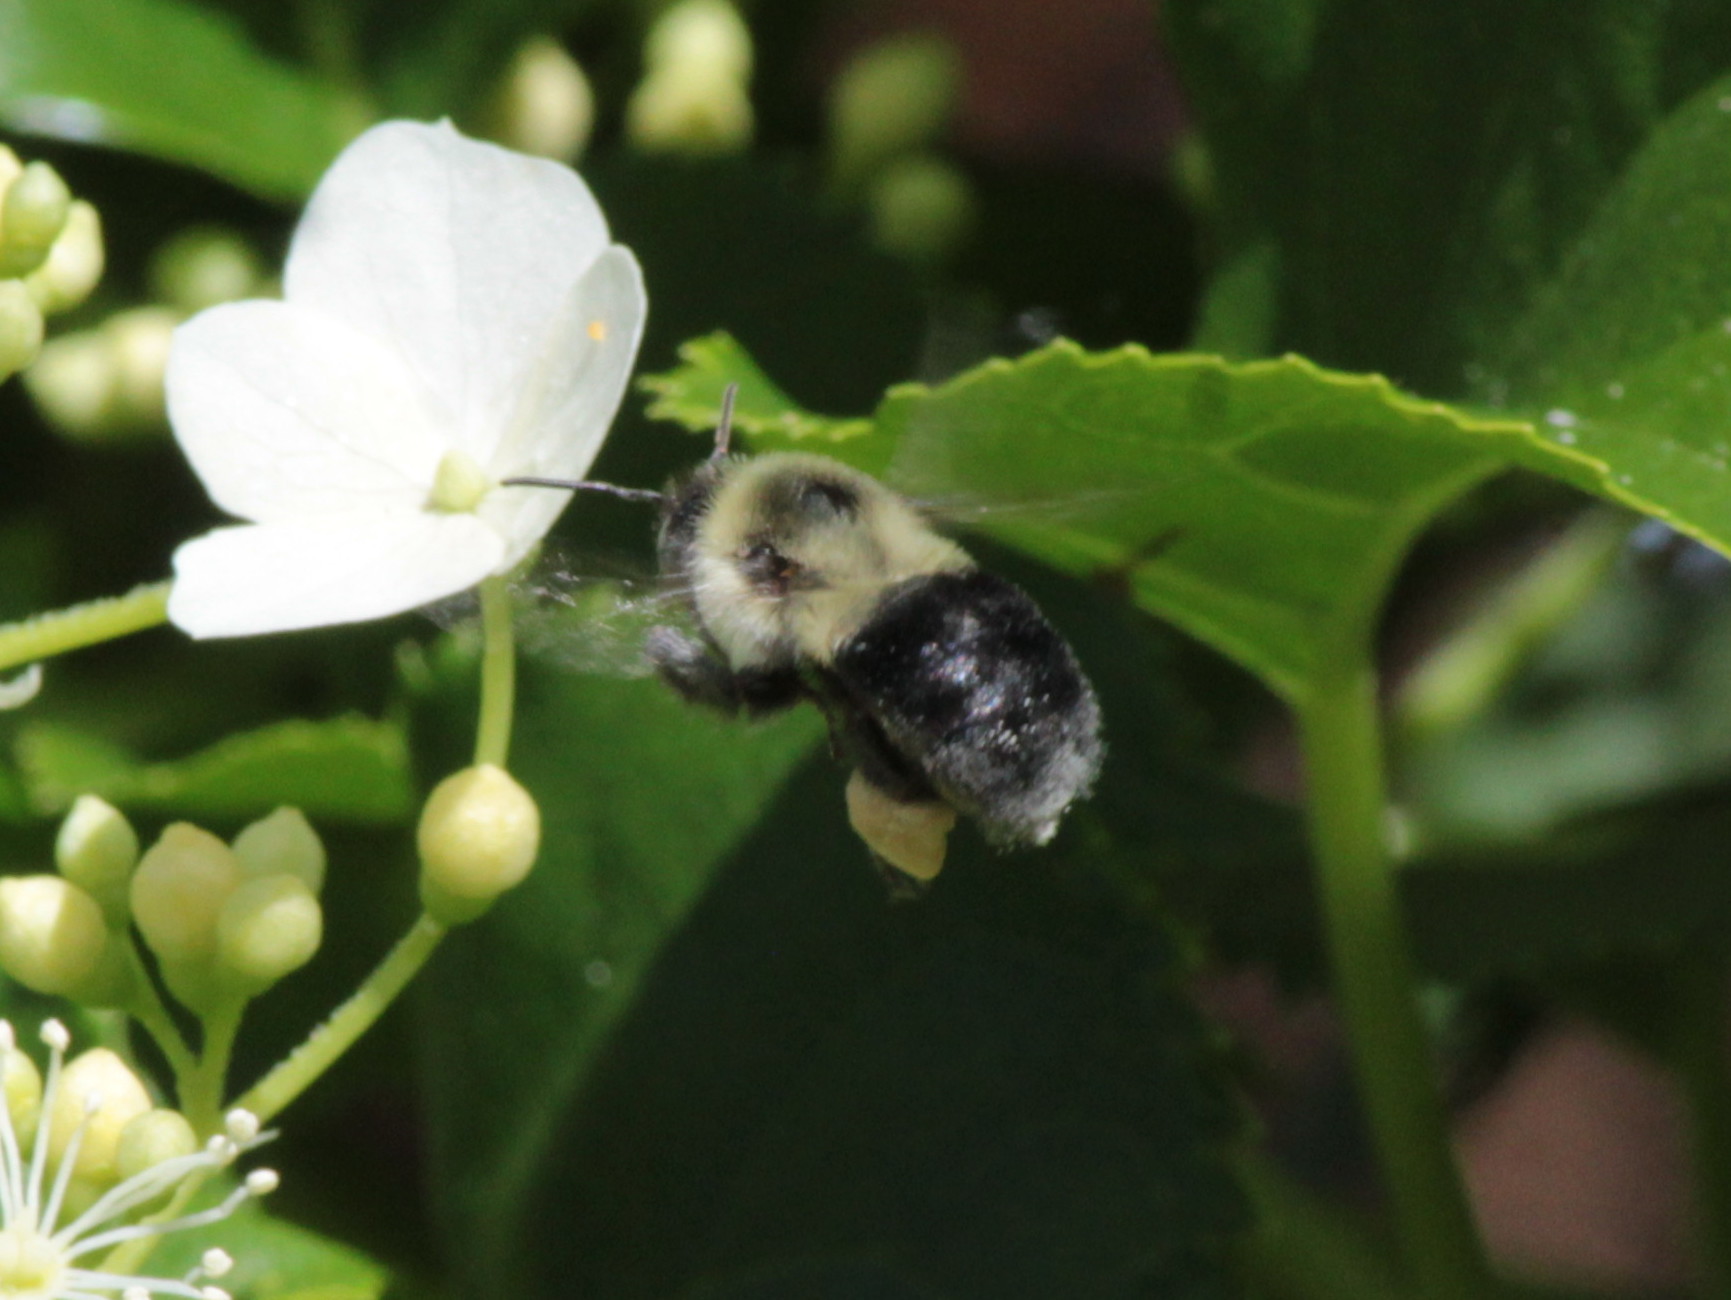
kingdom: Animalia
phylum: Arthropoda
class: Insecta
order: Hymenoptera
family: Apidae
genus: Bombus
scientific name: Bombus impatiens
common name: Common eastern bumble bee
